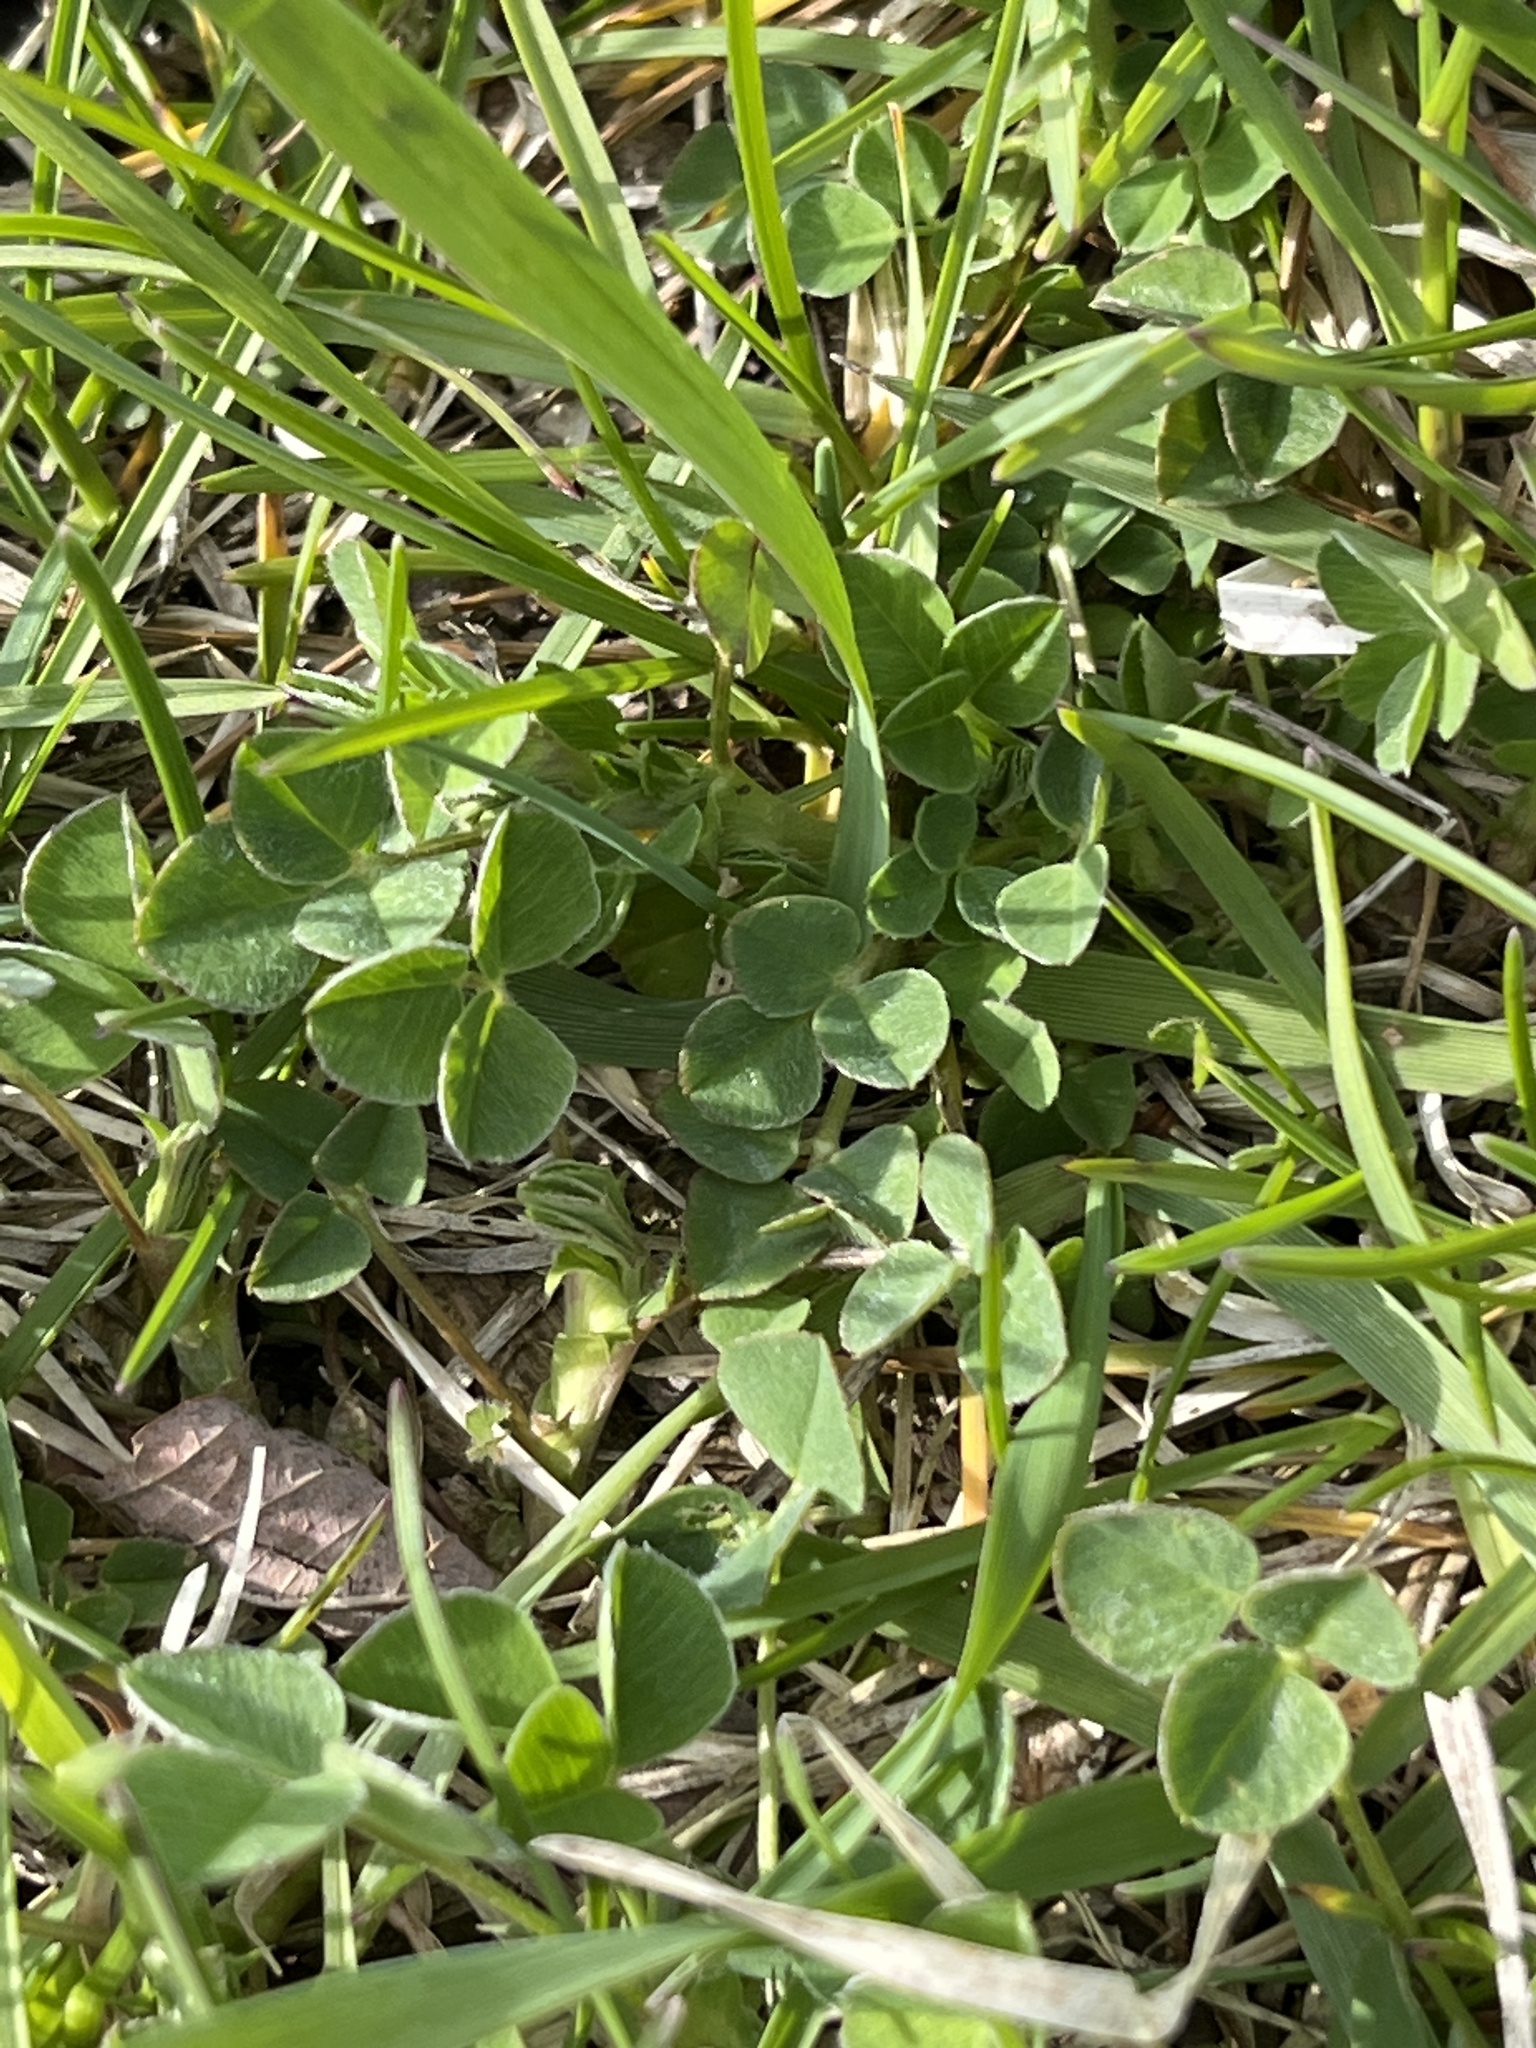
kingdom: Plantae
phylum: Tracheophyta
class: Magnoliopsida
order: Fabales
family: Fabaceae
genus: Medicago
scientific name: Medicago lupulina
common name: Black medick
